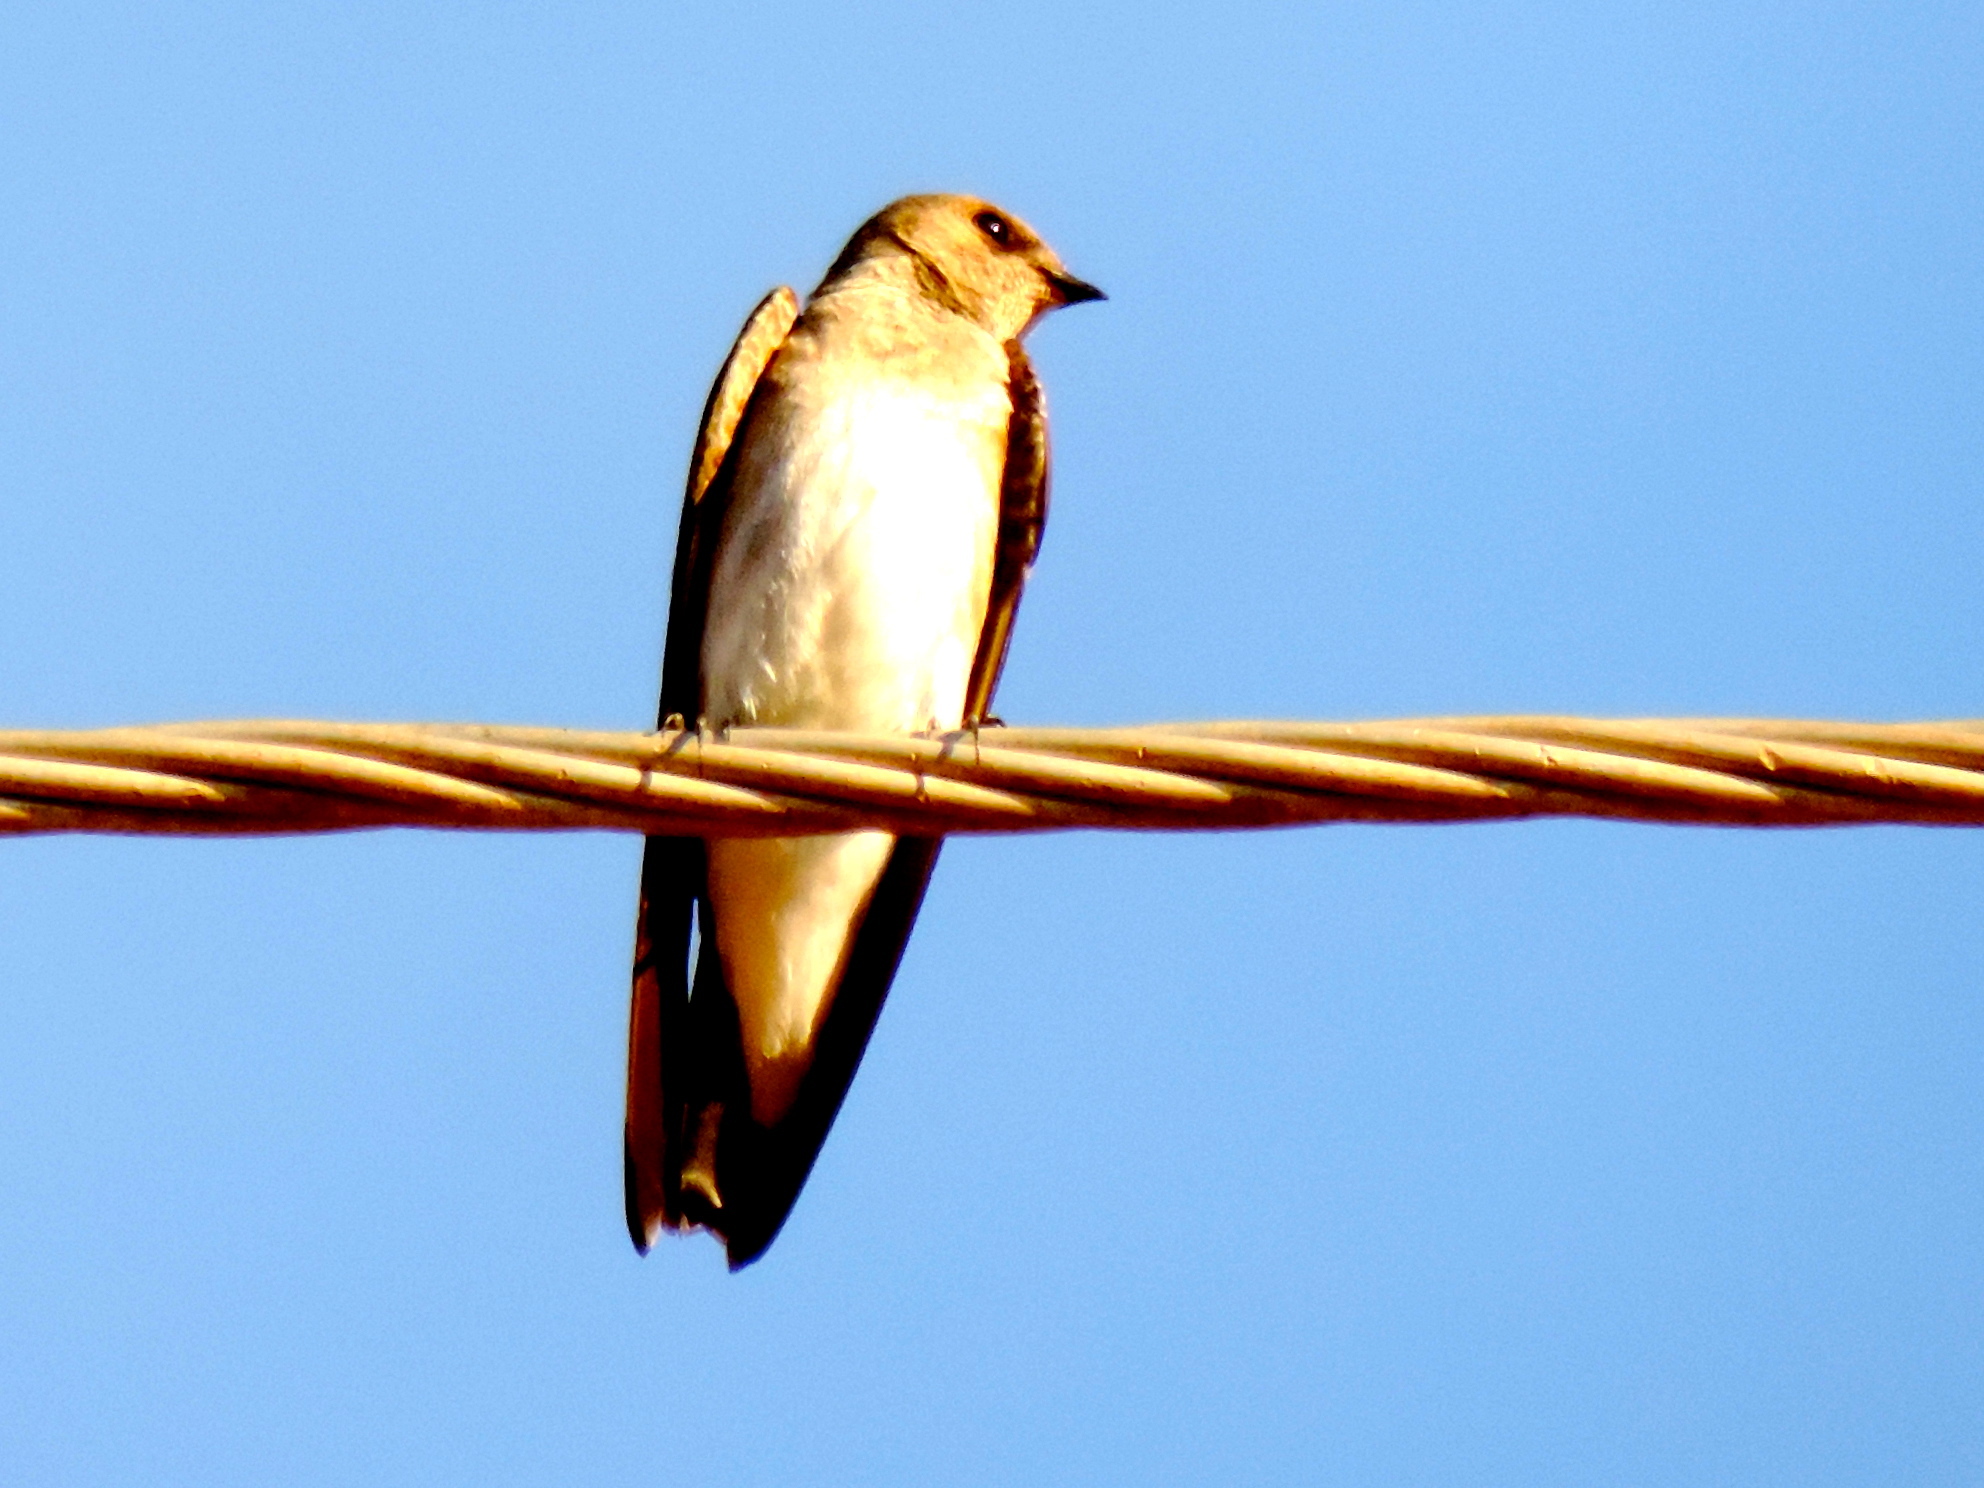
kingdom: Animalia
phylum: Chordata
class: Aves
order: Passeriformes
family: Hirundinidae
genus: Stelgidopteryx
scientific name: Stelgidopteryx serripennis
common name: Northern rough-winged swallow
